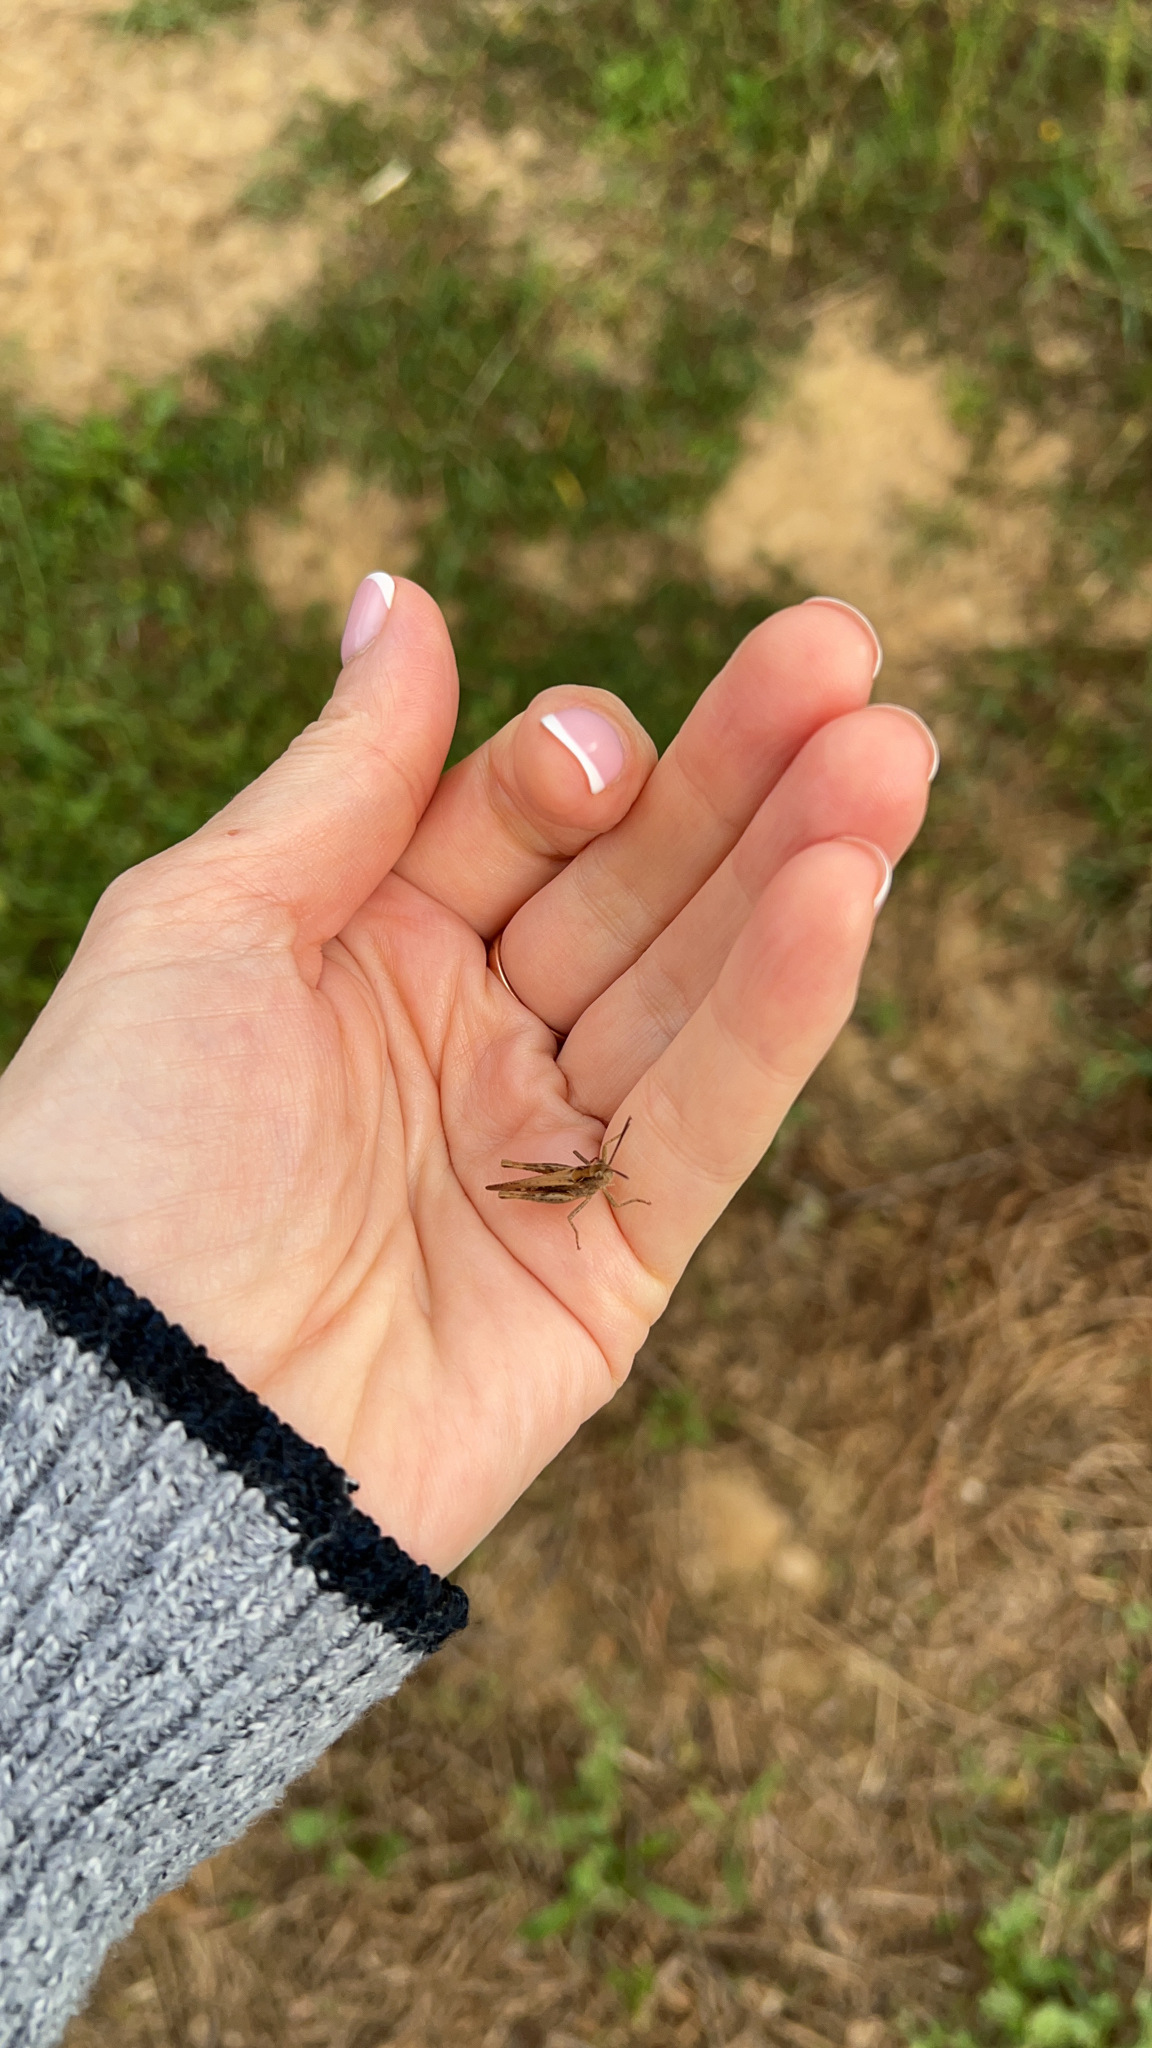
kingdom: Animalia
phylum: Arthropoda
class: Insecta
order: Orthoptera
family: Acrididae
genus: Chorthippus
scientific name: Chorthippus brunneus
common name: Field grasshopper
